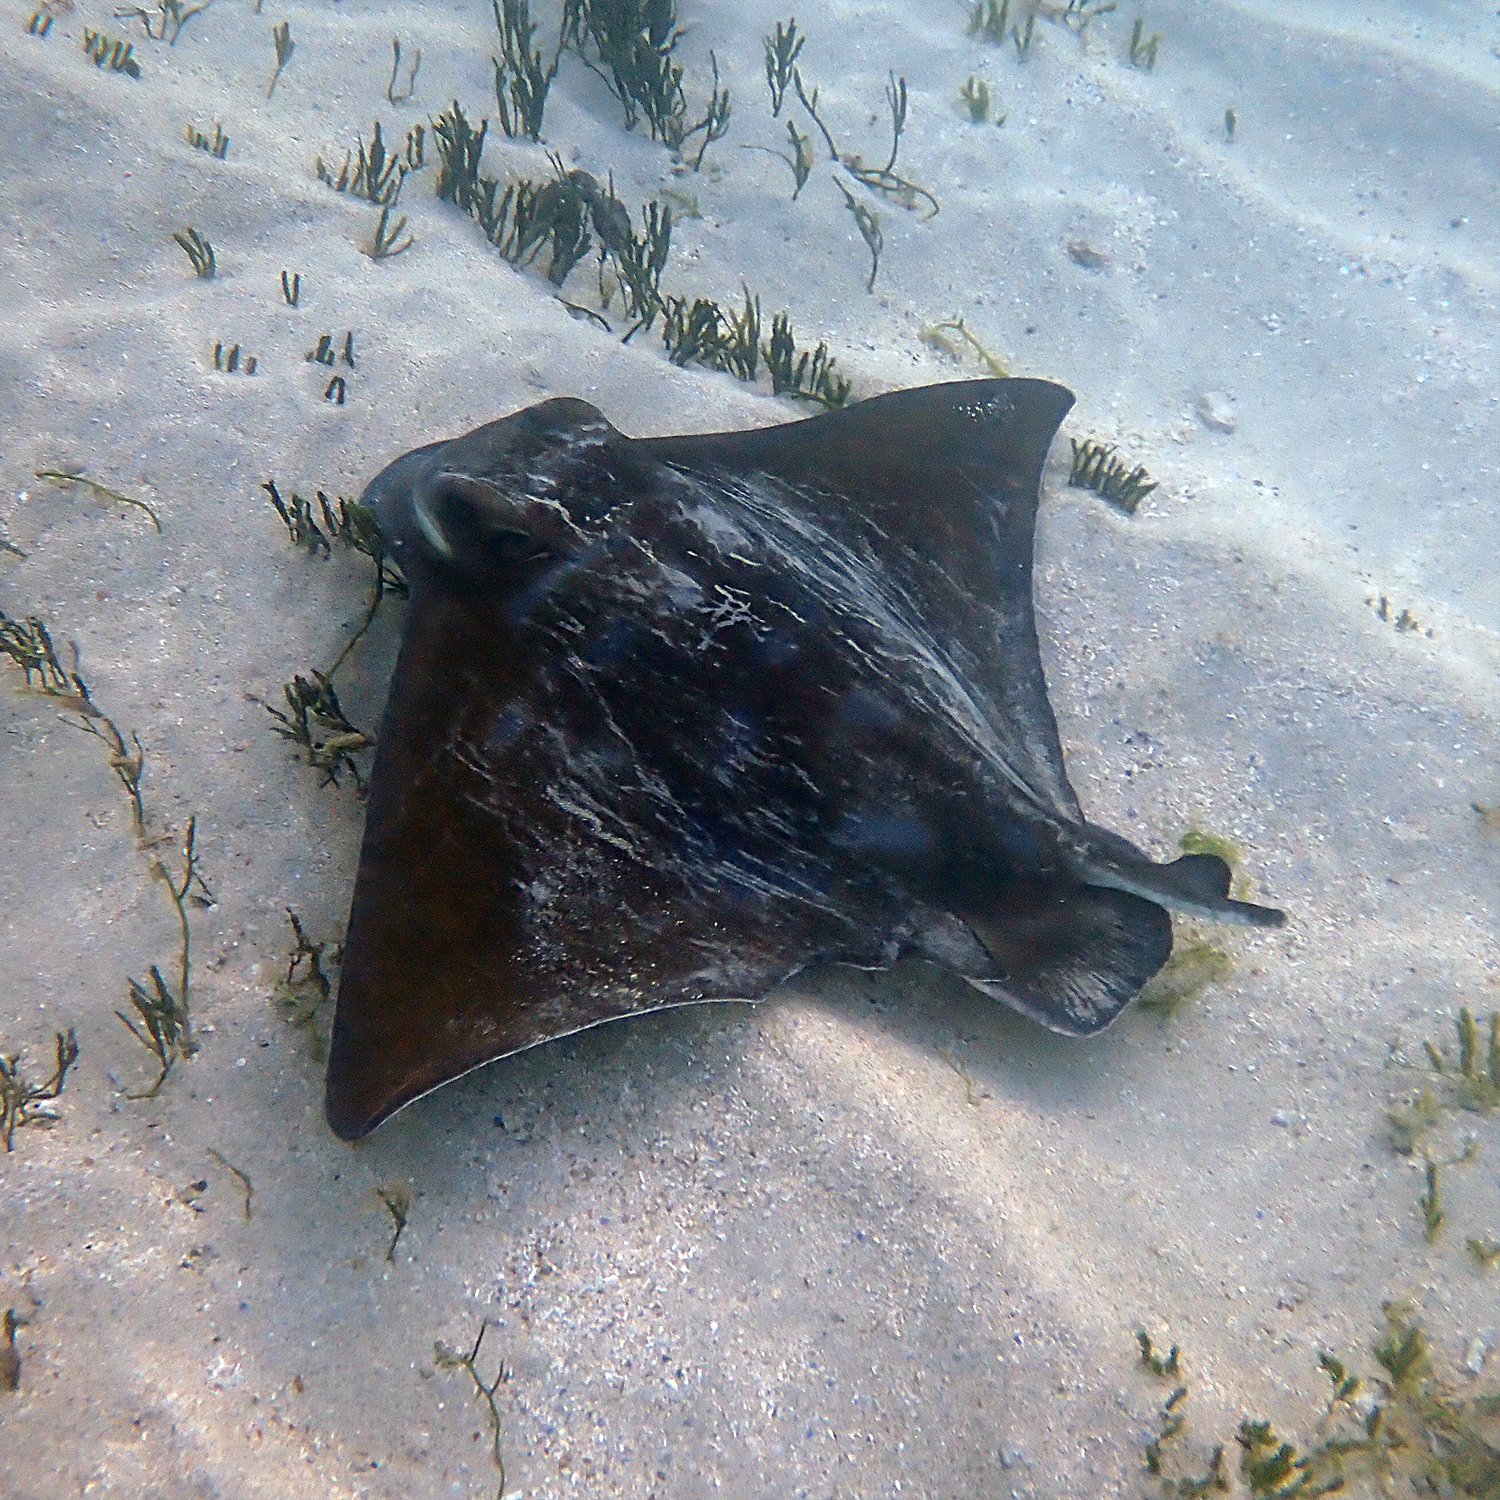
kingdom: Animalia
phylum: Chordata
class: Elasmobranchii
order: Myliobatiformes
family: Myliobatidae
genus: Myliobatis
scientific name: Myliobatis tenuicaudatus
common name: Eagle ray
